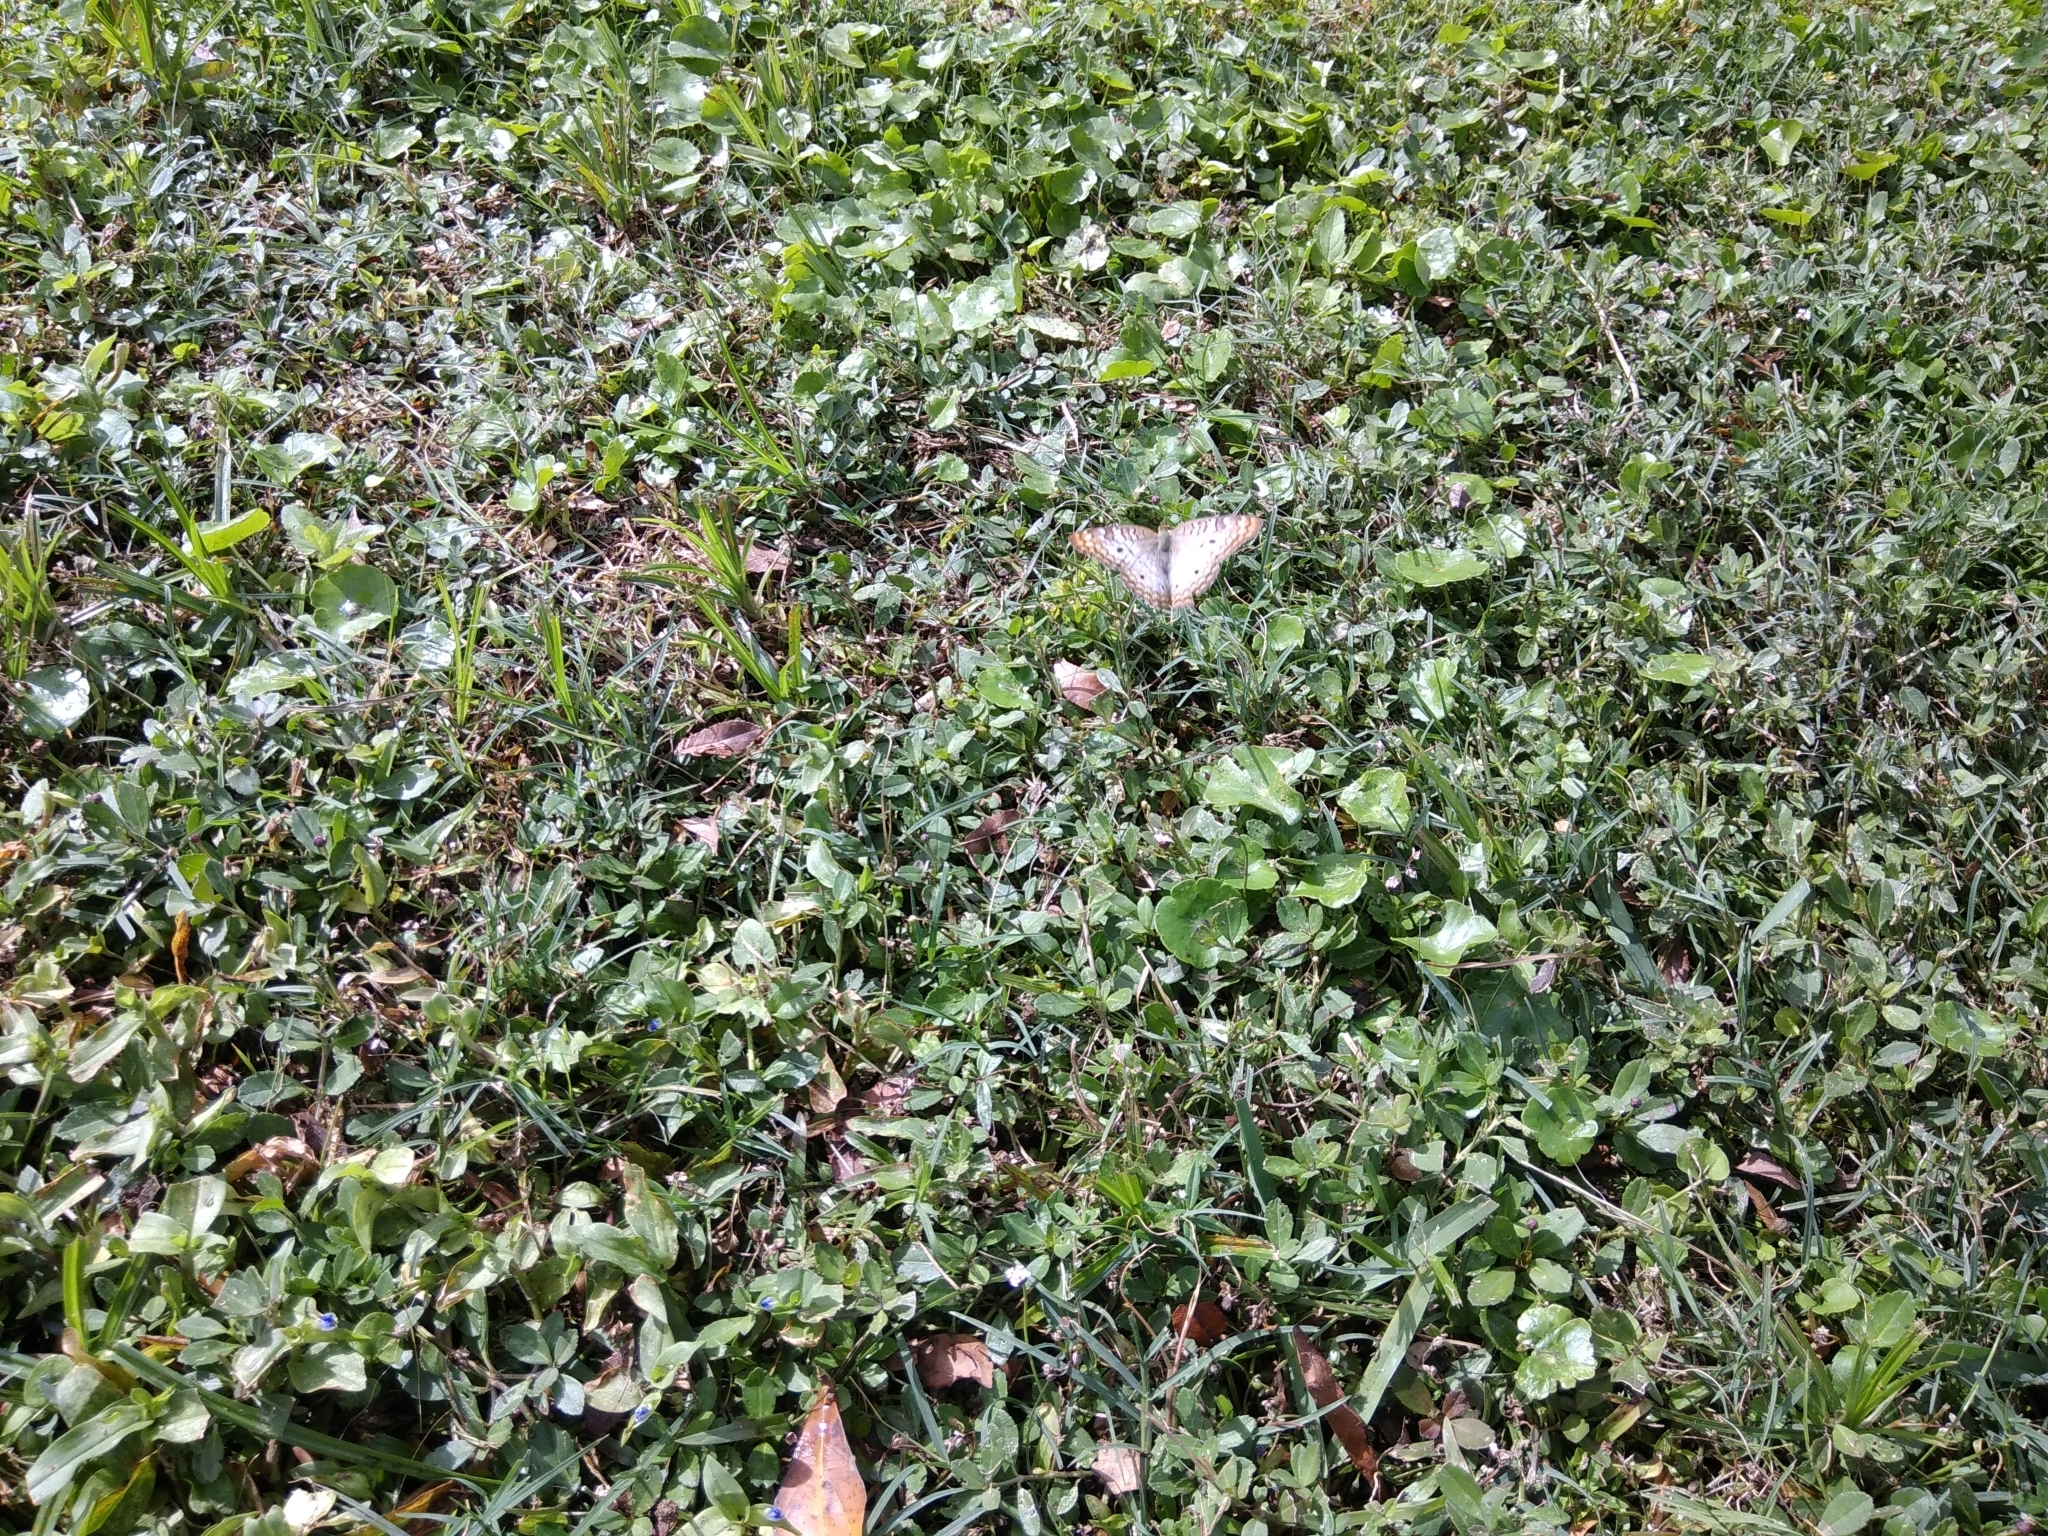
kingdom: Animalia
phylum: Arthropoda
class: Insecta
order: Lepidoptera
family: Nymphalidae
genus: Anartia
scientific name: Anartia jatrophae
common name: White peacock
